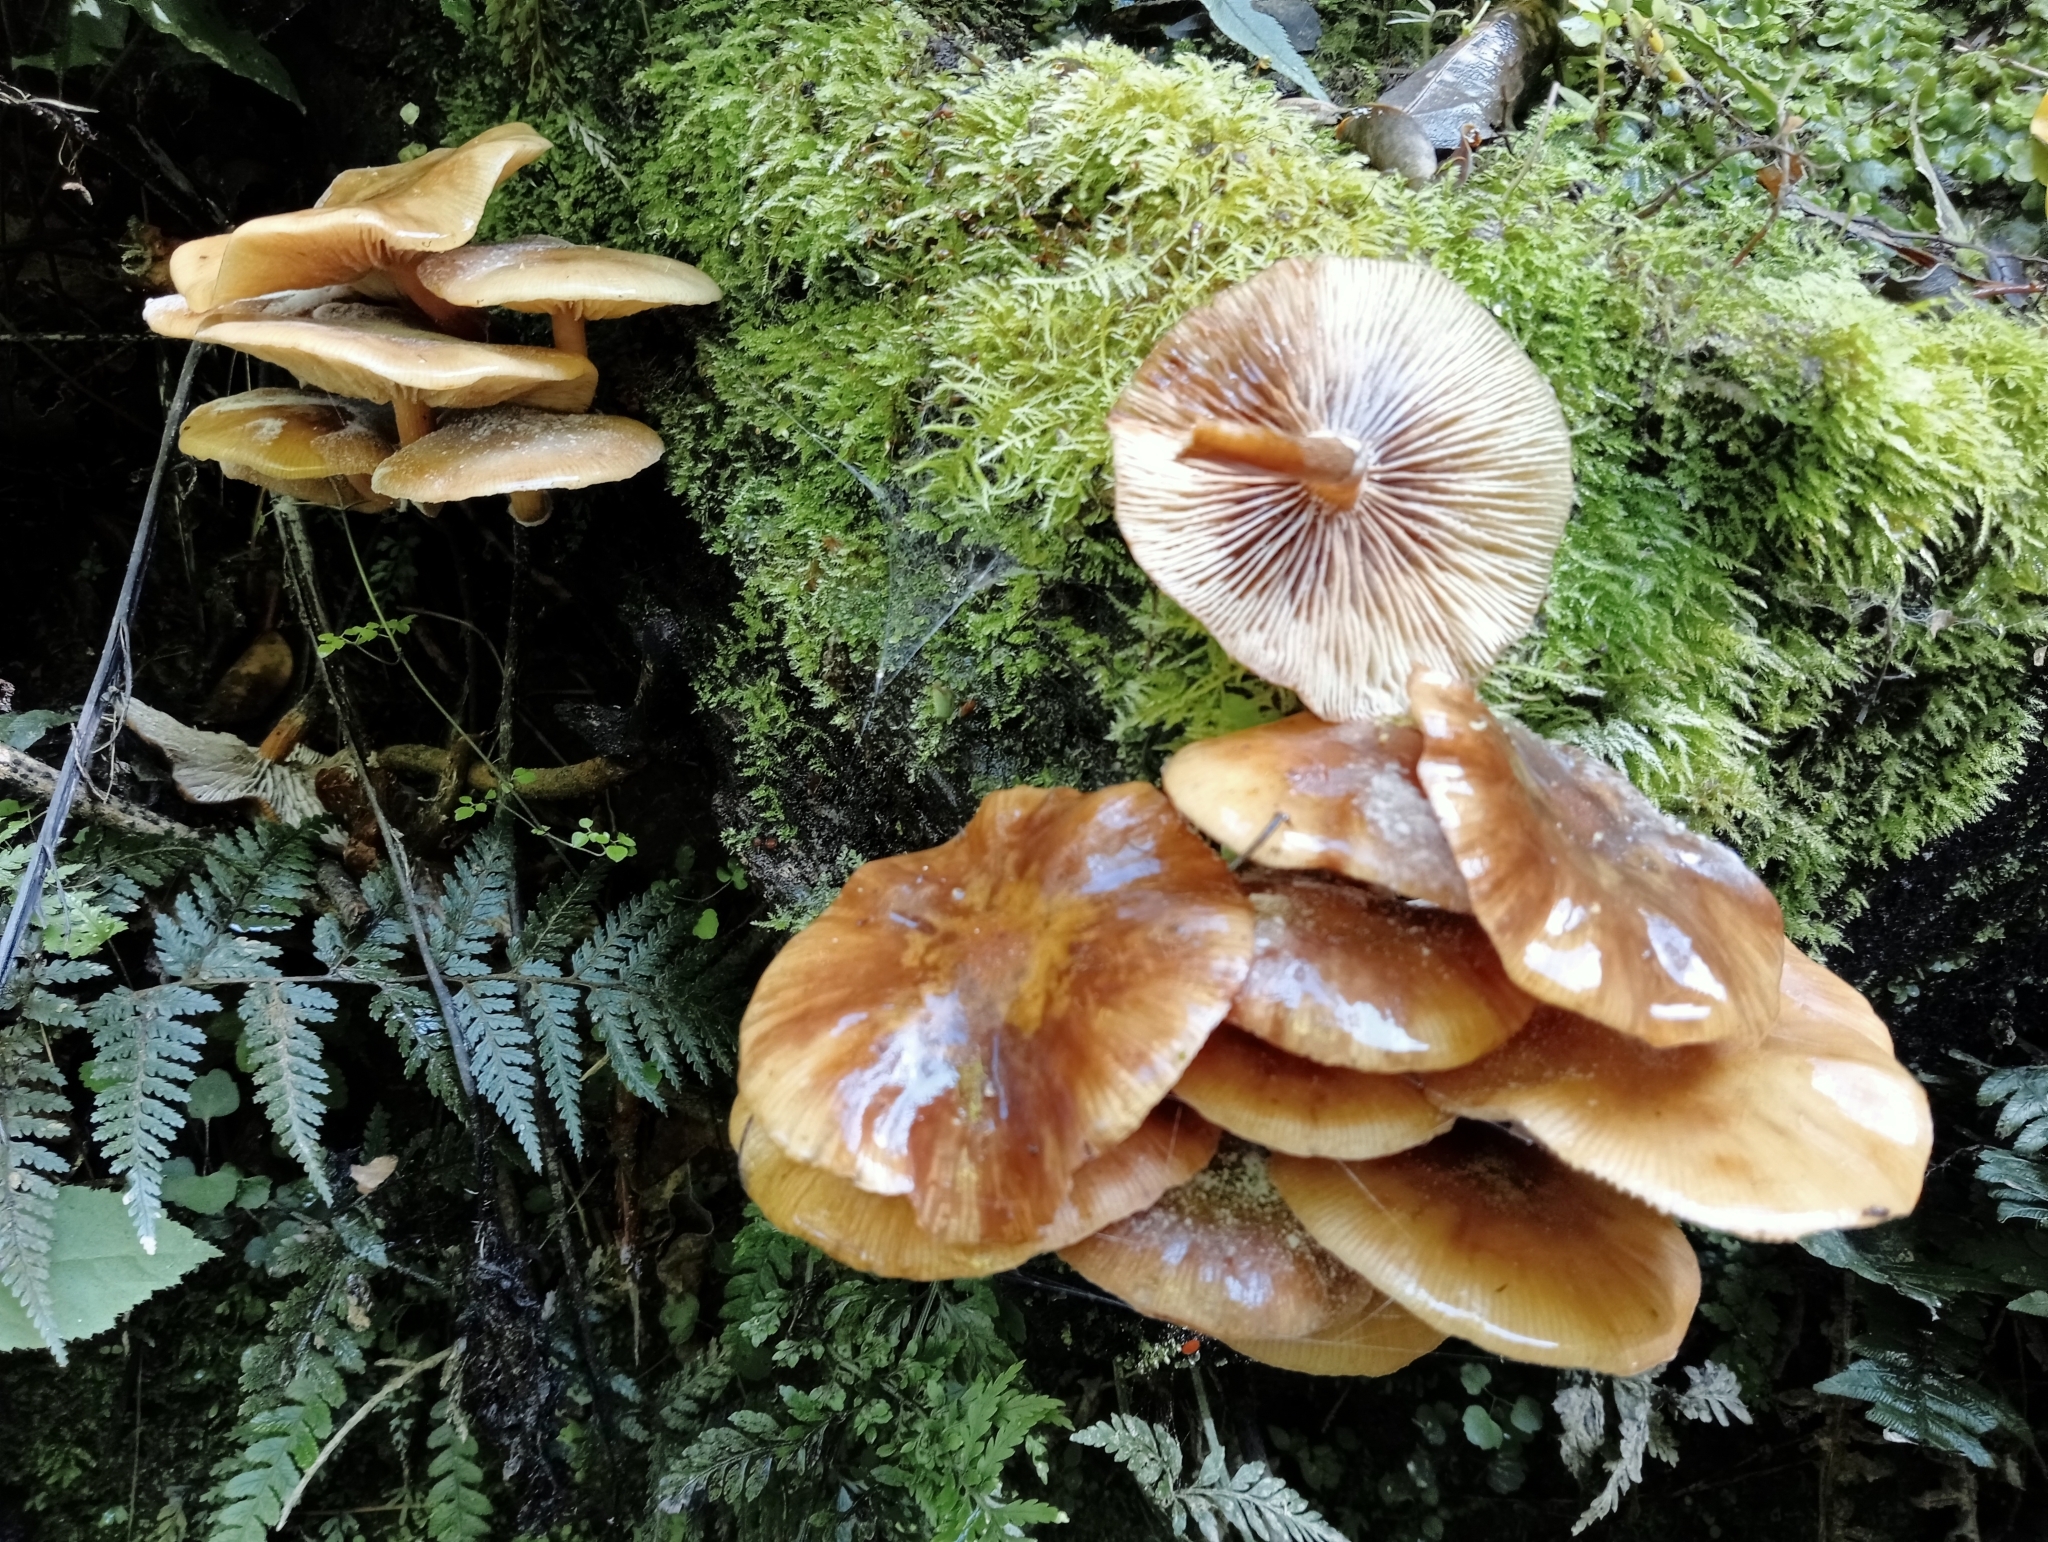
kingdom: Fungi
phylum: Basidiomycota
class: Agaricomycetes
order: Agaricales
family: Physalacriaceae
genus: Armillaria
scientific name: Armillaria novae-zelandiae
